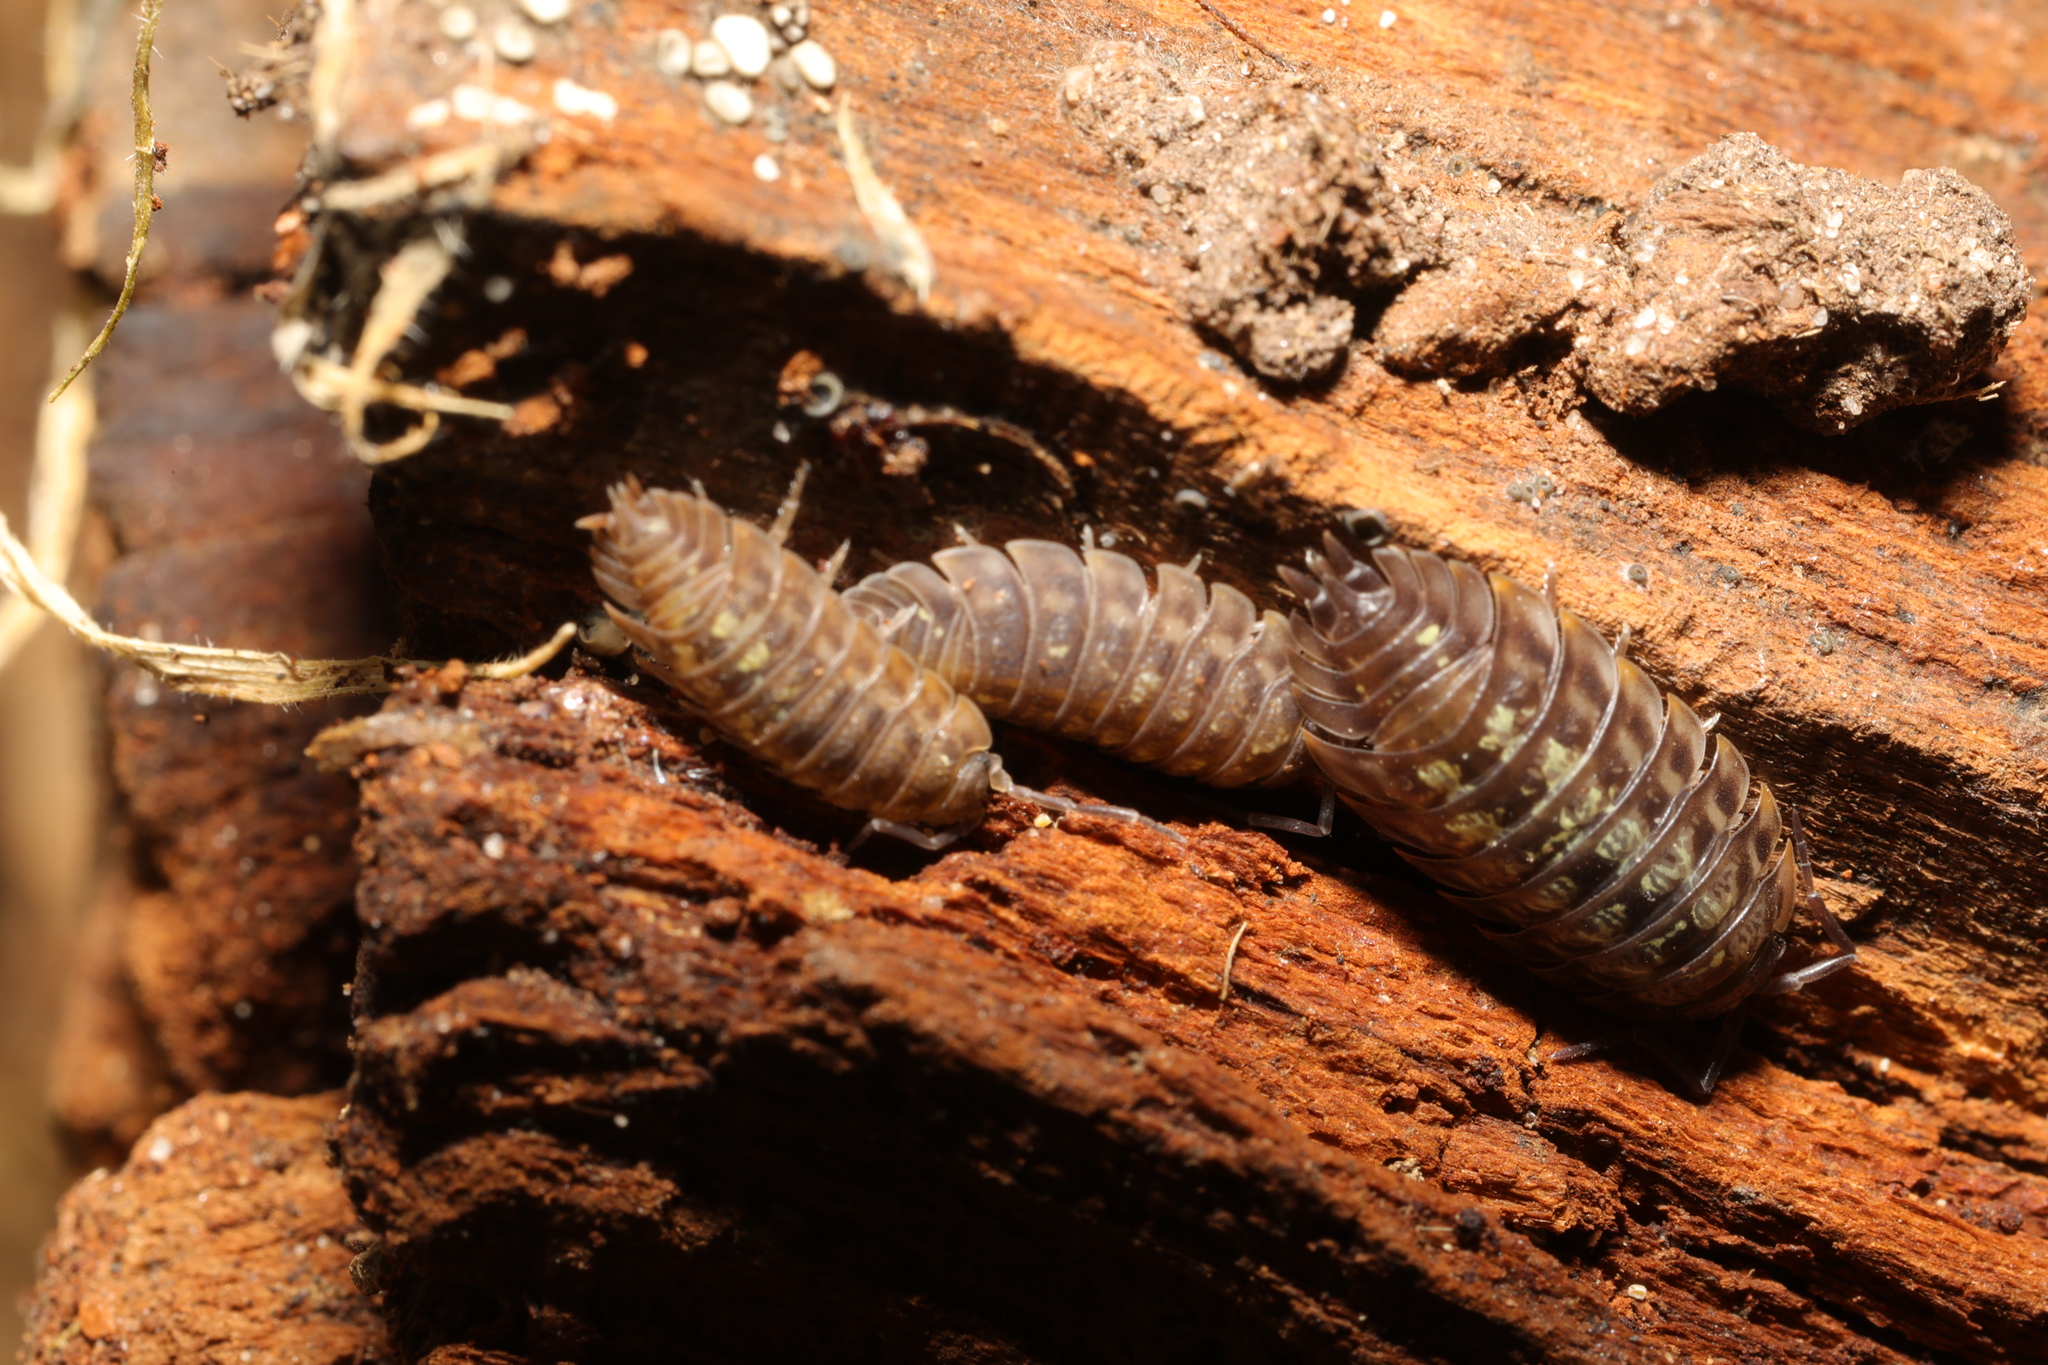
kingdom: Animalia
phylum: Arthropoda
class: Malacostraca
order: Isopoda
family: Oniscidae
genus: Oniscus
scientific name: Oniscus asellus
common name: Common shiny woodlouse
